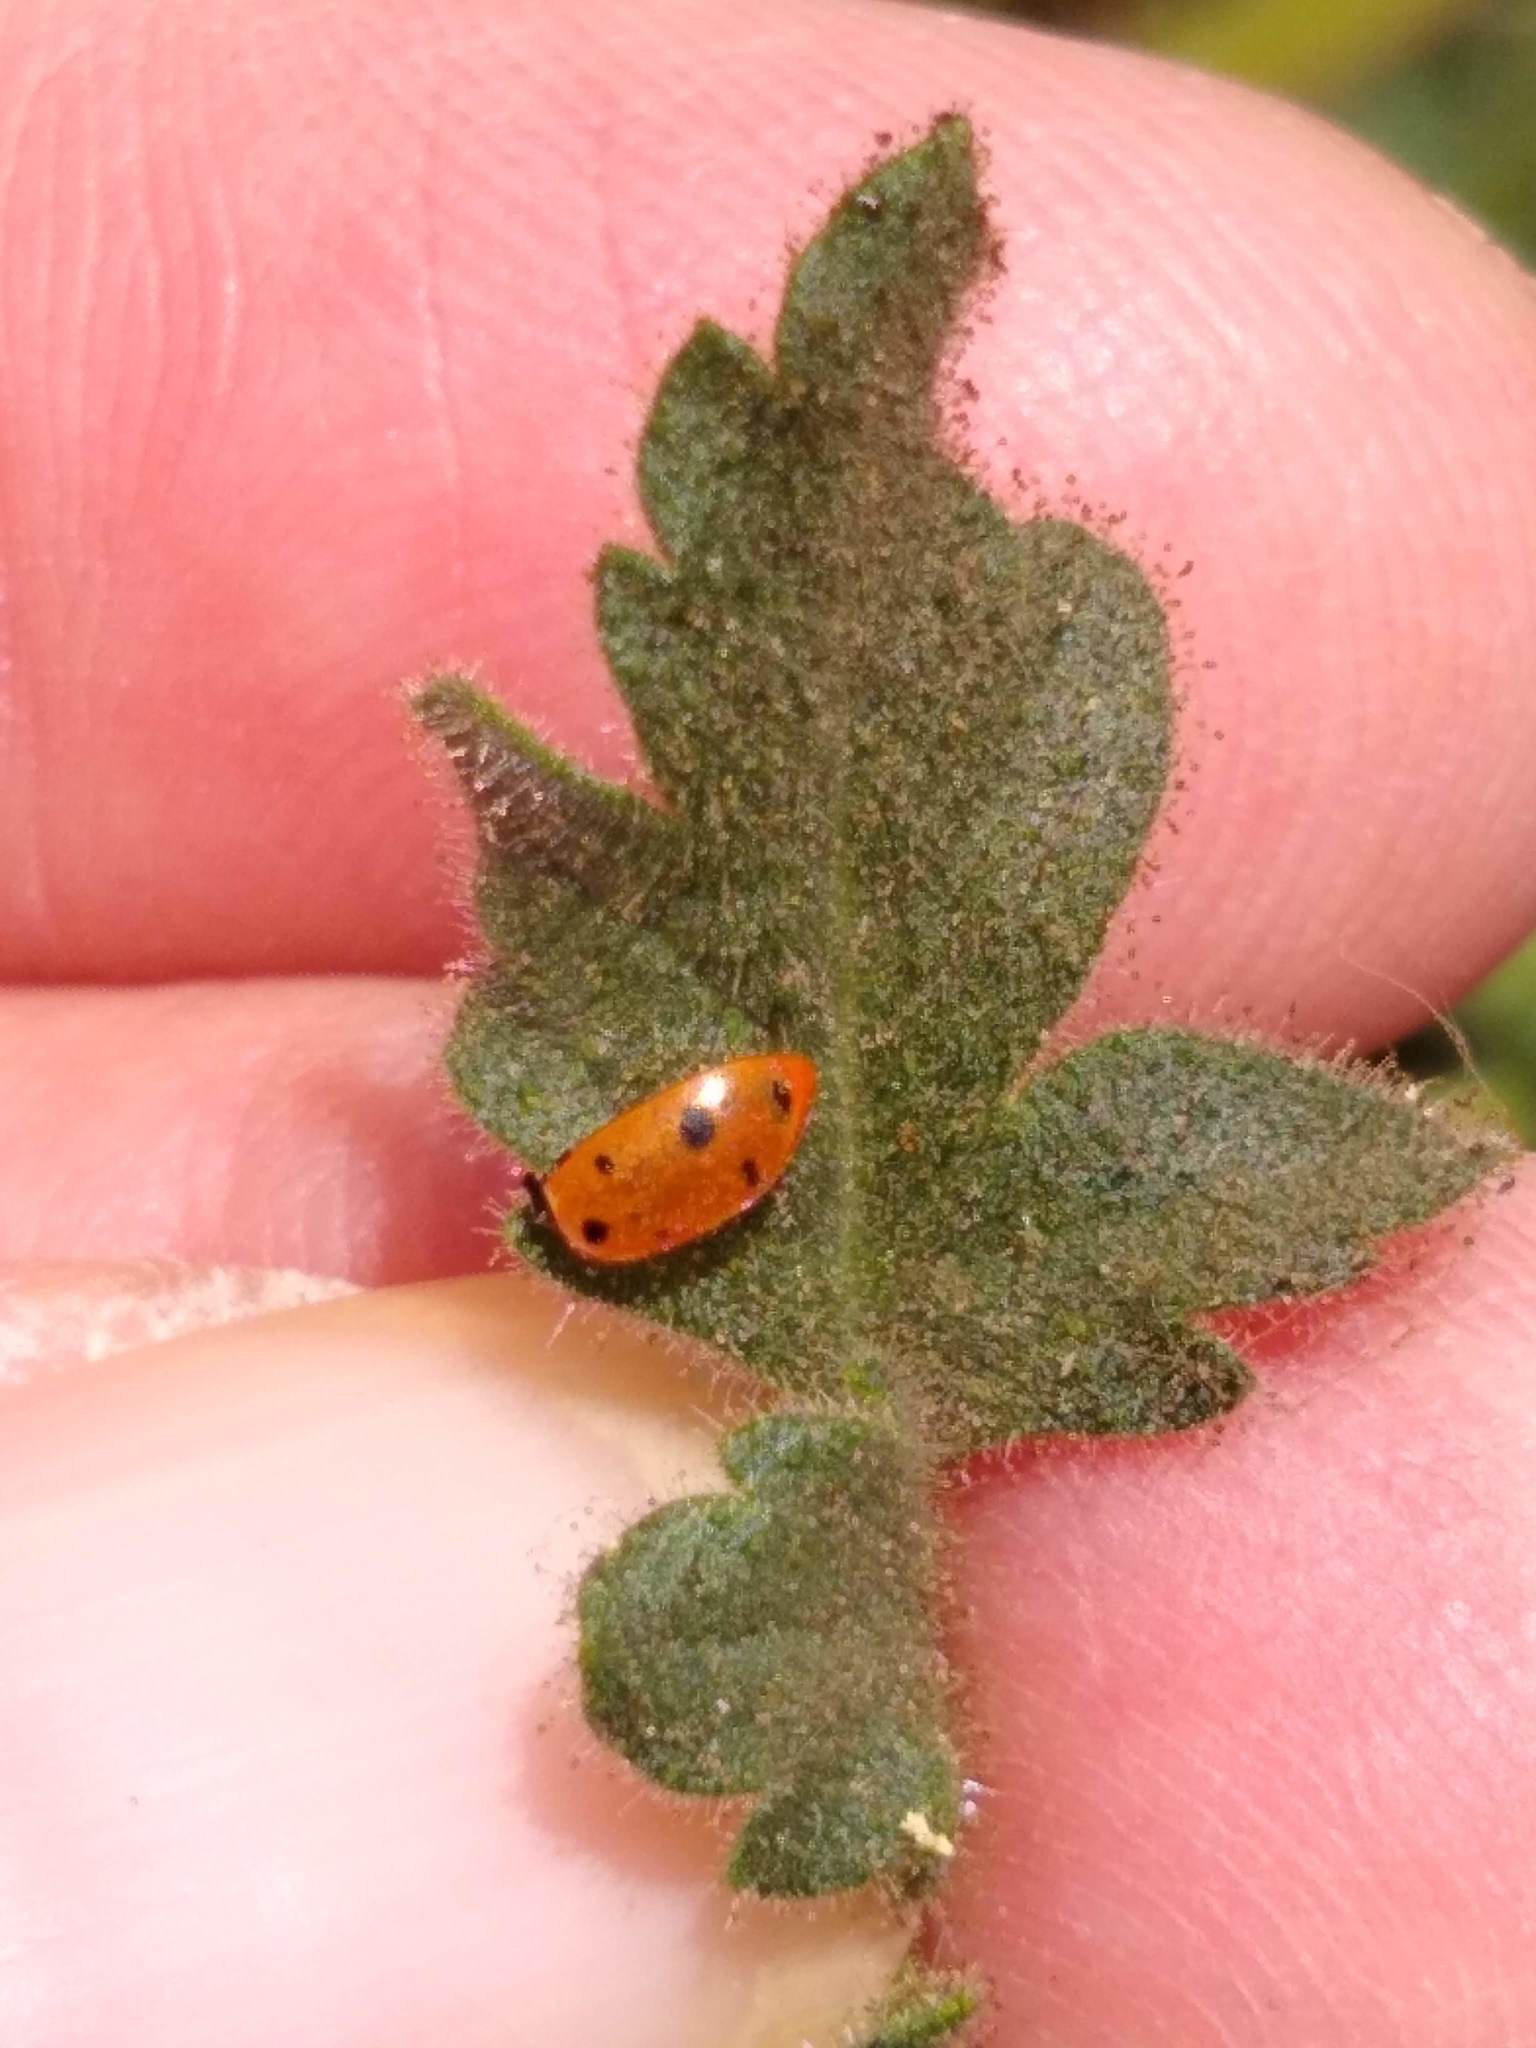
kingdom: Plantae
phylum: Tracheophyta
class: Magnoliopsida
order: Boraginales
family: Hydrophyllaceae
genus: Phacelia
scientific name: Phacelia ramosissima
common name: Branching phacelia
